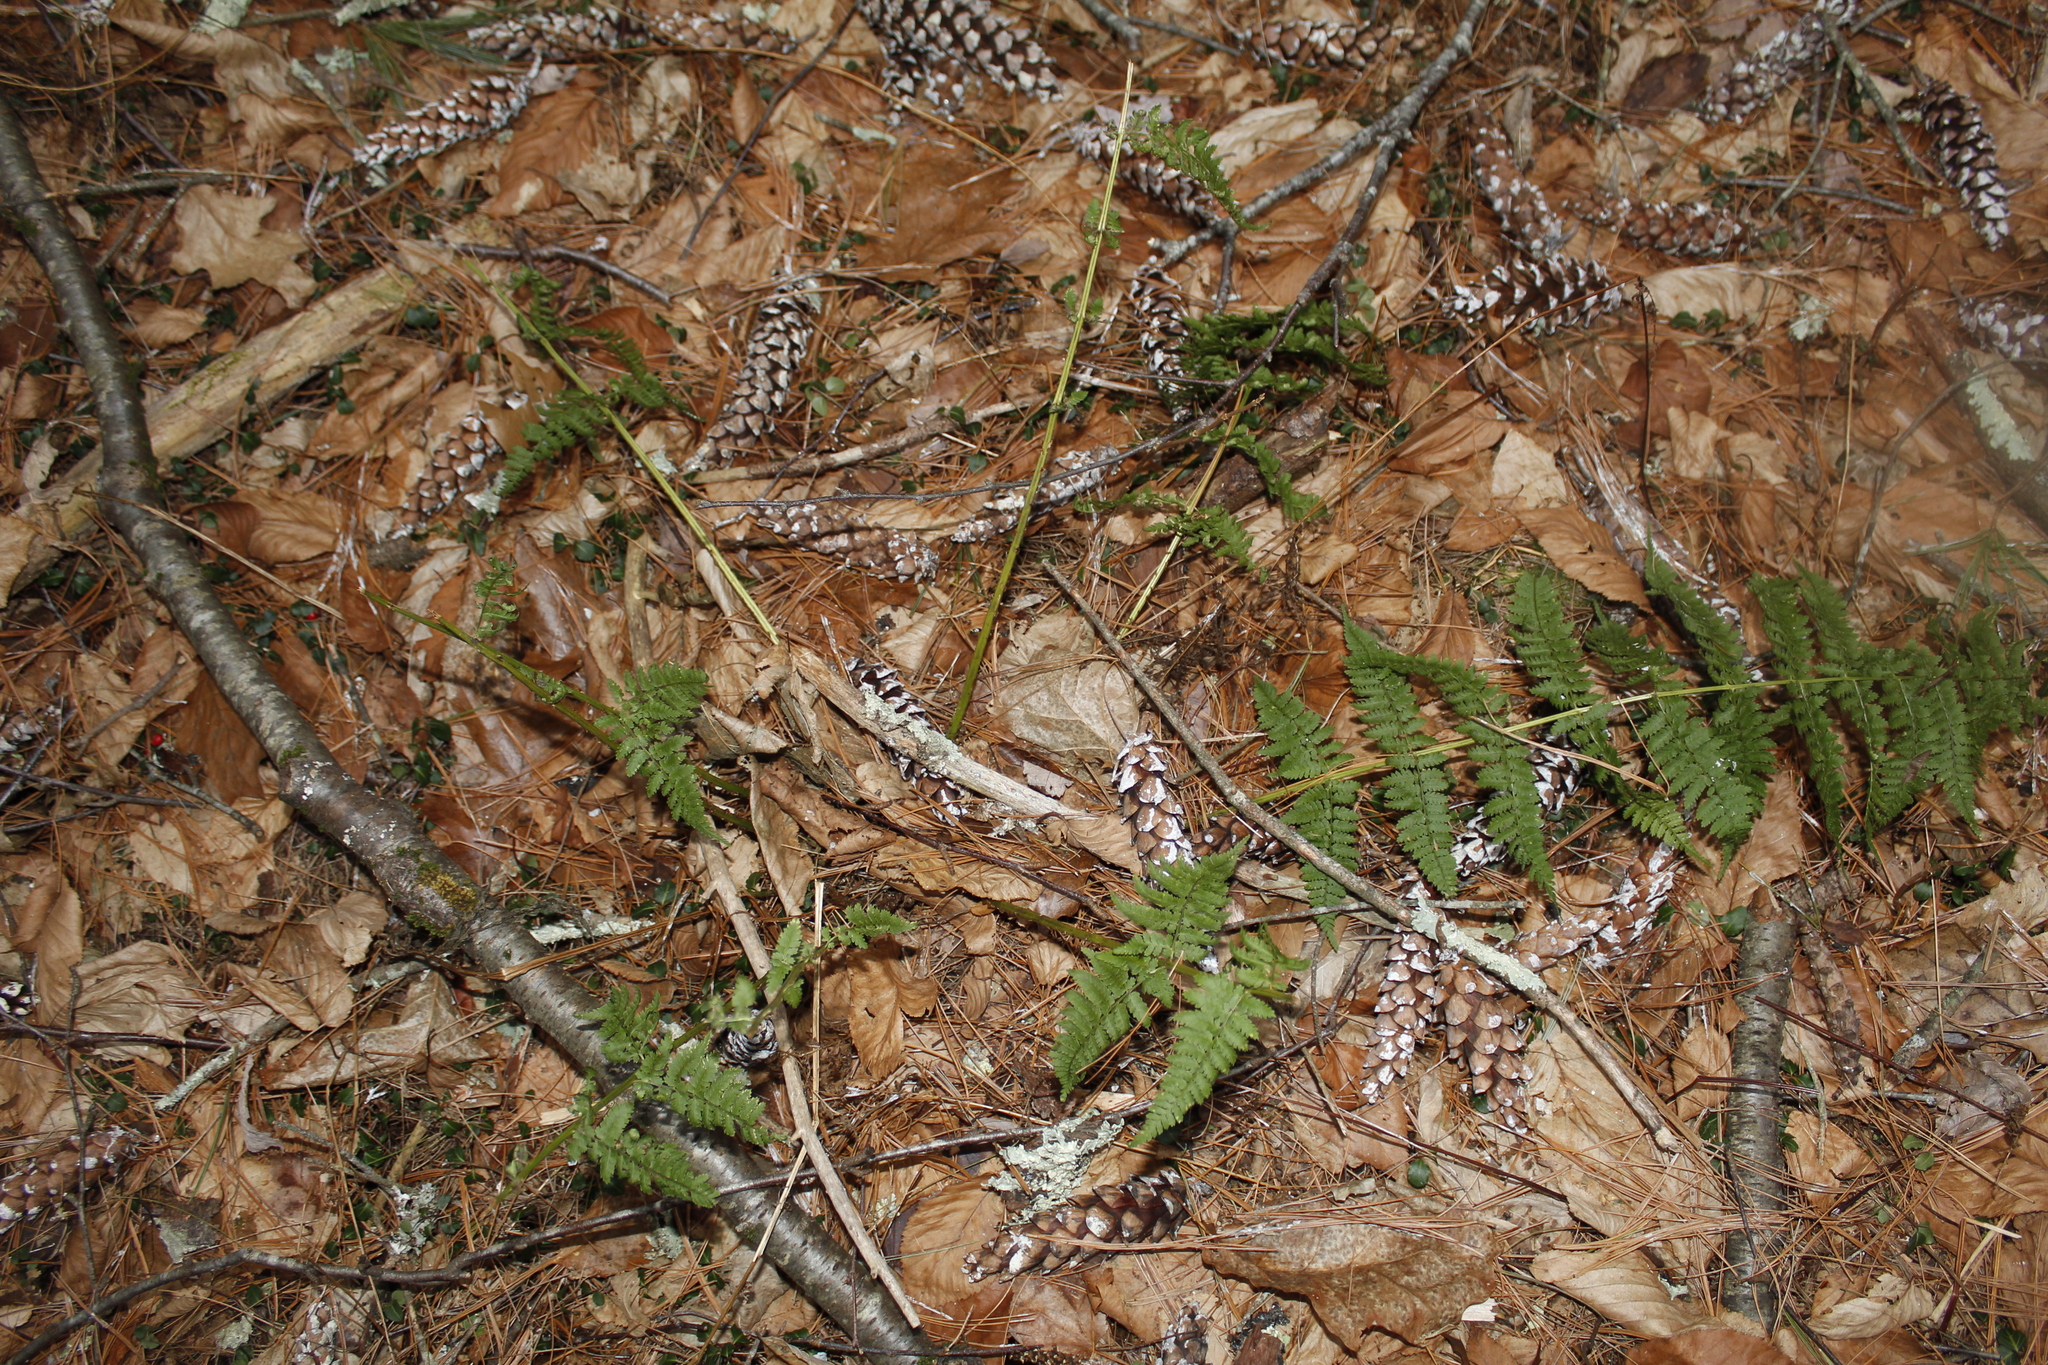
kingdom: Plantae
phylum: Tracheophyta
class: Polypodiopsida
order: Polypodiales
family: Dryopteridaceae
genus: Dryopteris
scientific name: Dryopteris intermedia
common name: Evergreen wood fern
